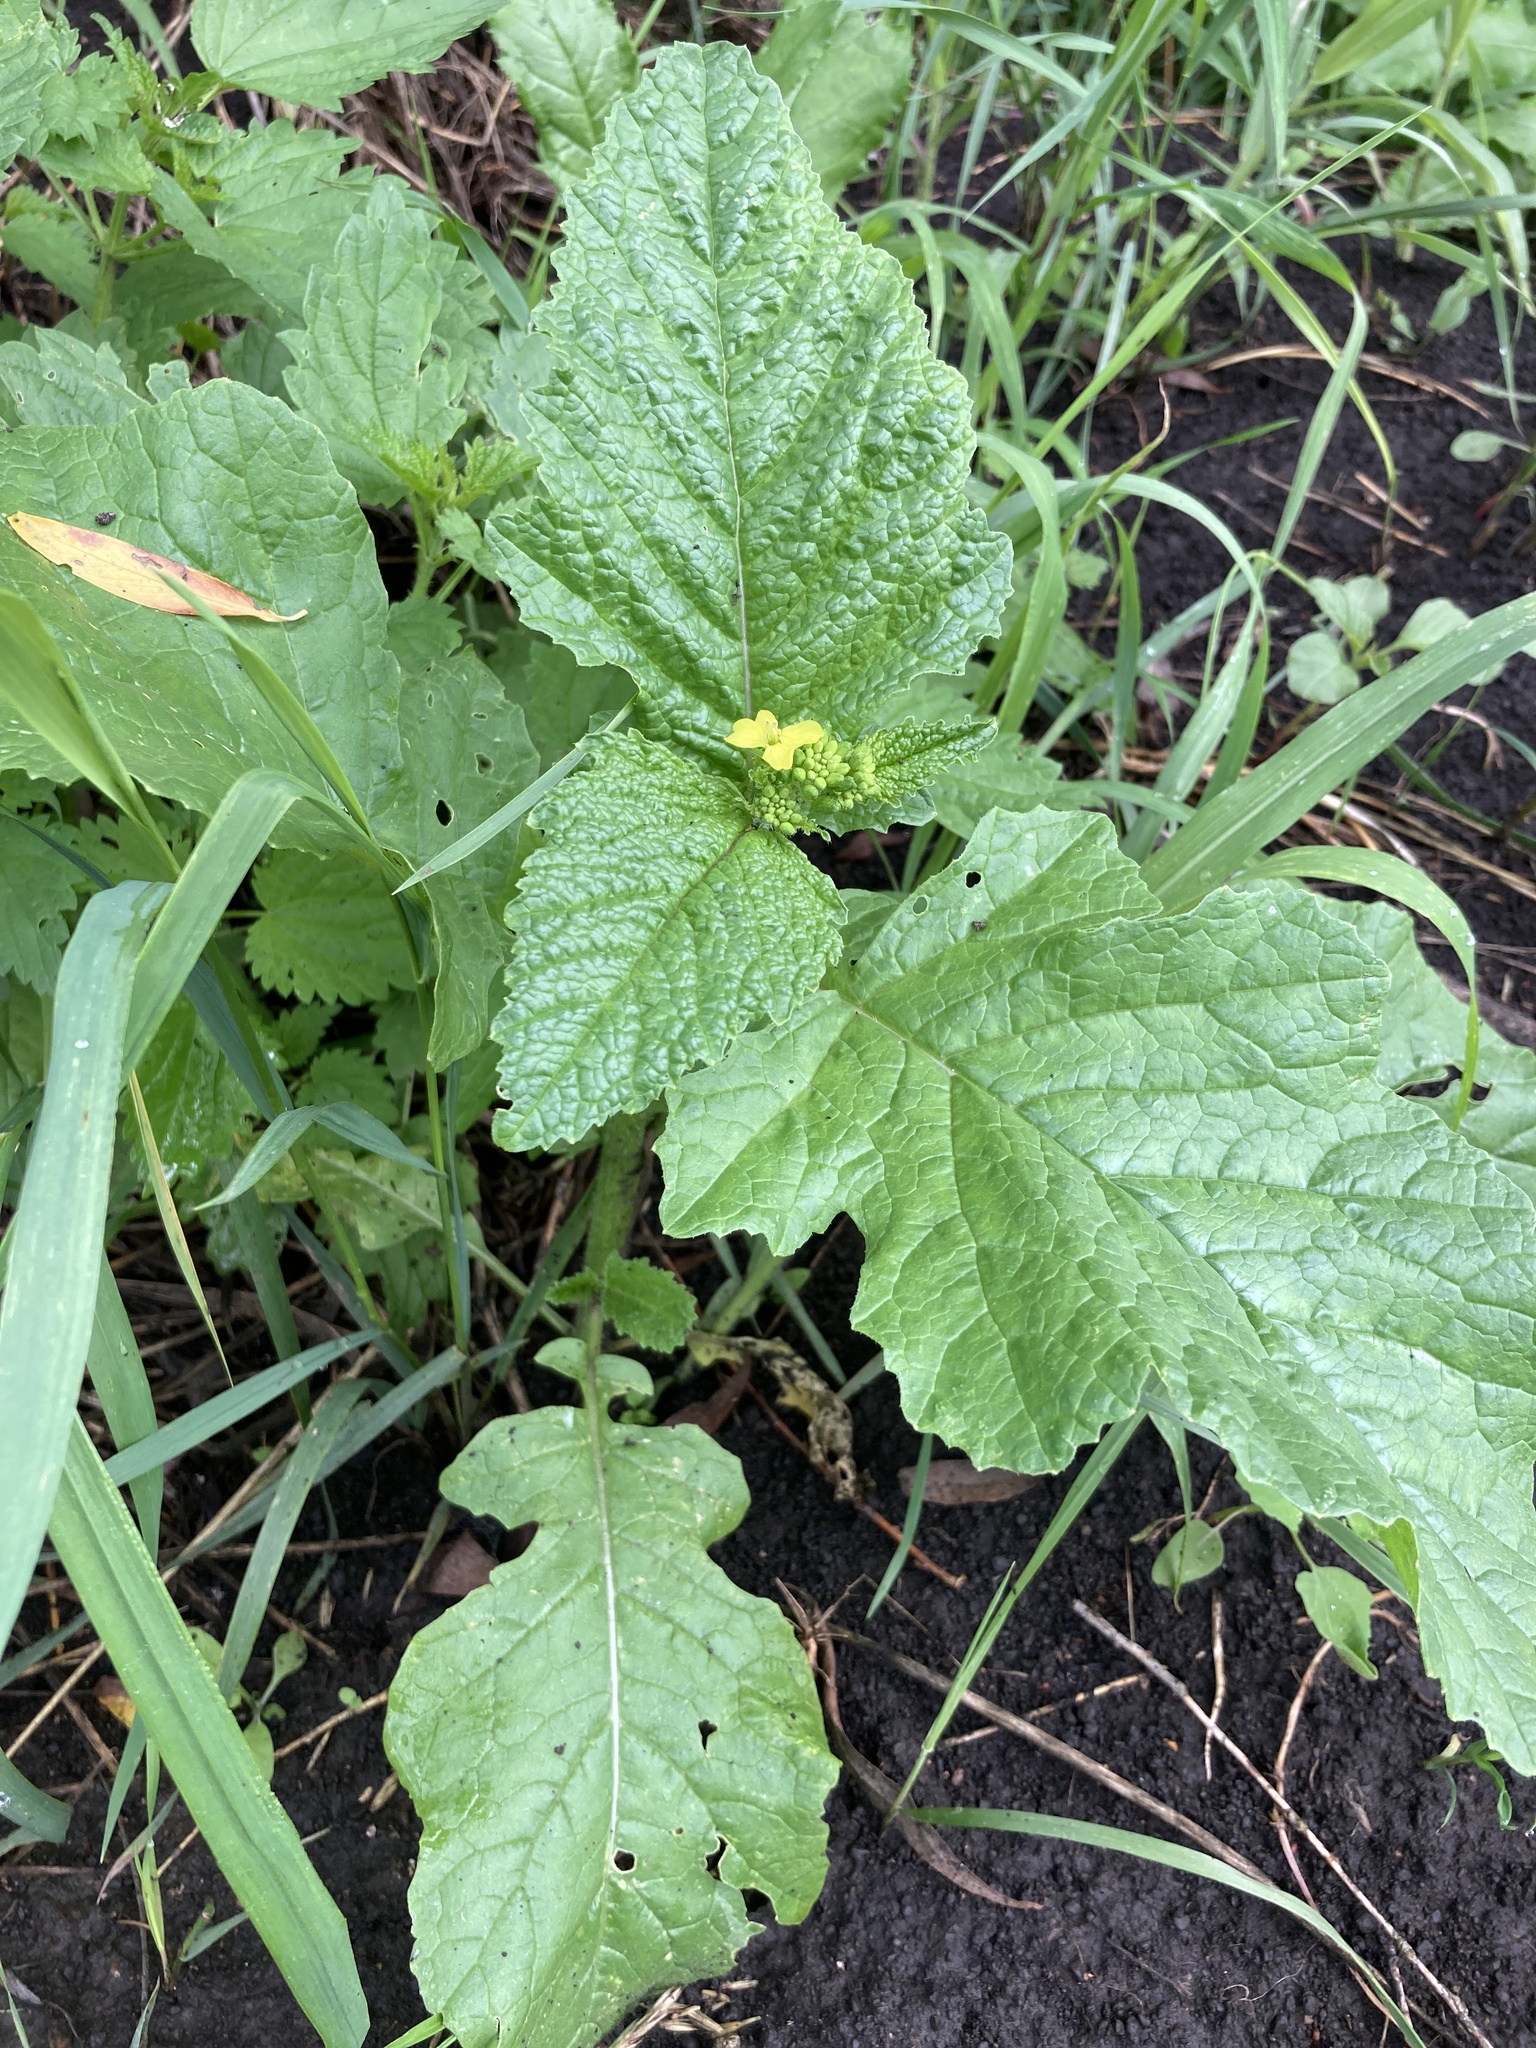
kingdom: Plantae
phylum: Tracheophyta
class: Magnoliopsida
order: Brassicales
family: Brassicaceae
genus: Sinapis
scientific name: Sinapis arvensis
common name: Charlock
